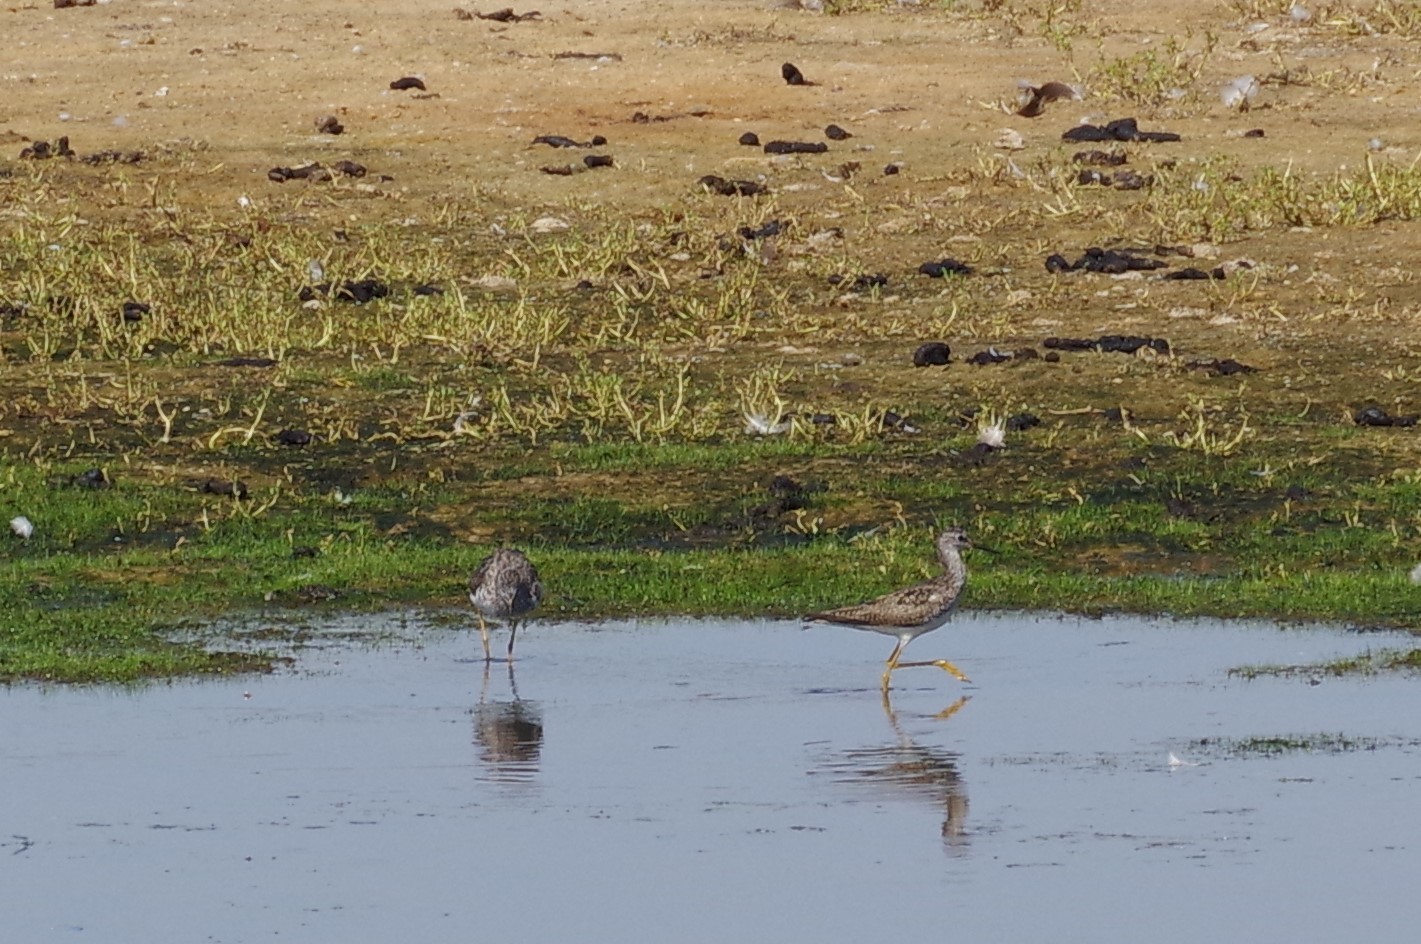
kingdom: Animalia
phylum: Chordata
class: Aves
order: Charadriiformes
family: Scolopacidae
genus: Tringa
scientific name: Tringa flavipes
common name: Lesser yellowlegs
